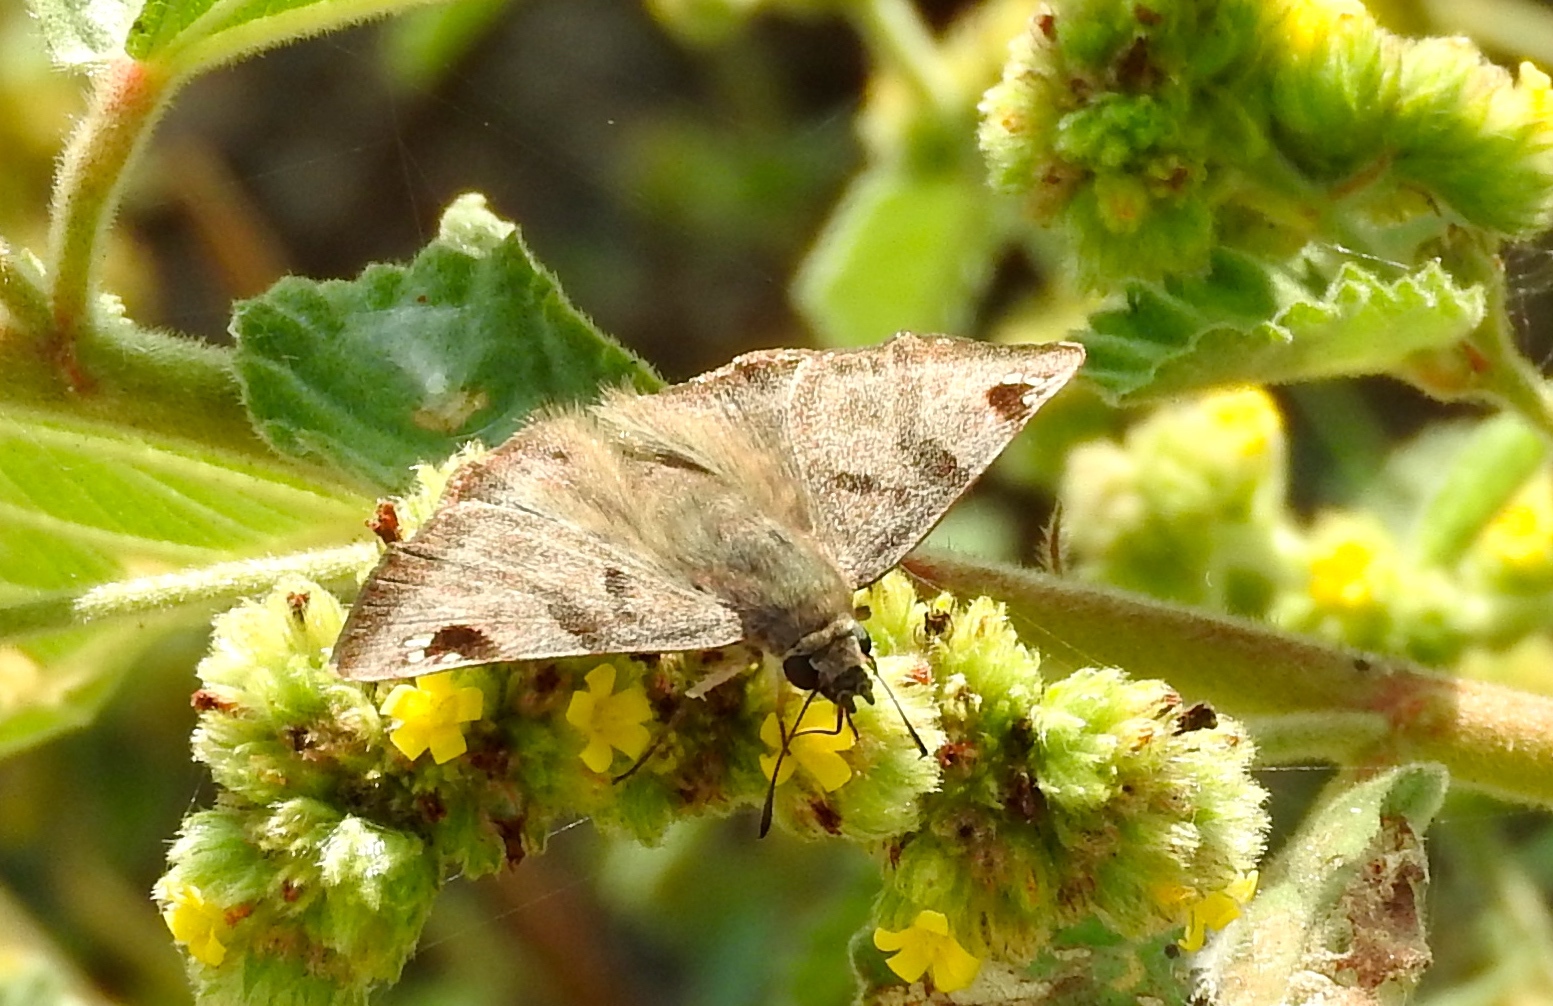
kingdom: Animalia
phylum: Arthropoda
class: Insecta
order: Lepidoptera
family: Hesperiidae
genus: Arteurotia
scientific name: Arteurotia tractipennis
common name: Starred skipper
